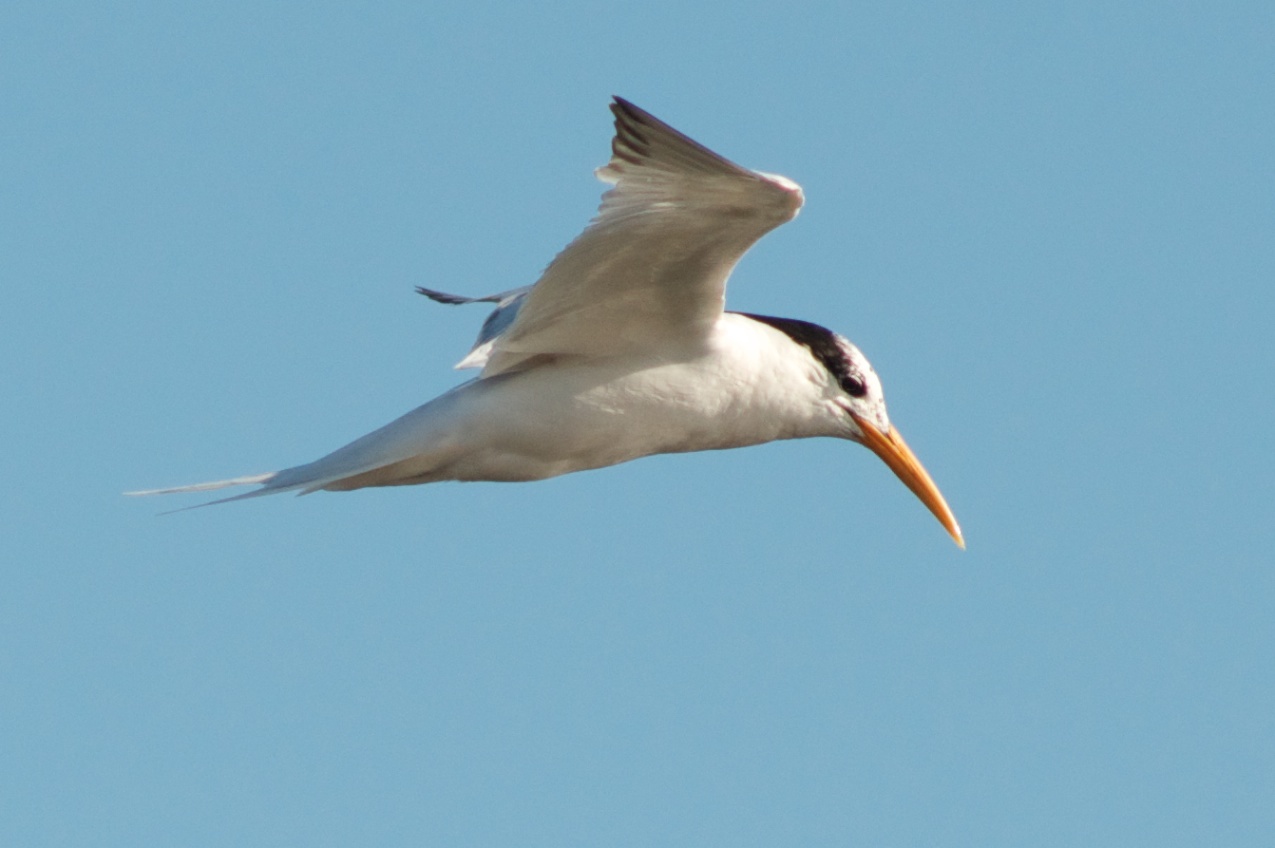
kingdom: Animalia
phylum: Chordata
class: Aves
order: Charadriiformes
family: Laridae
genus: Thalasseus
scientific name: Thalasseus elegans
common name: Elegant tern
